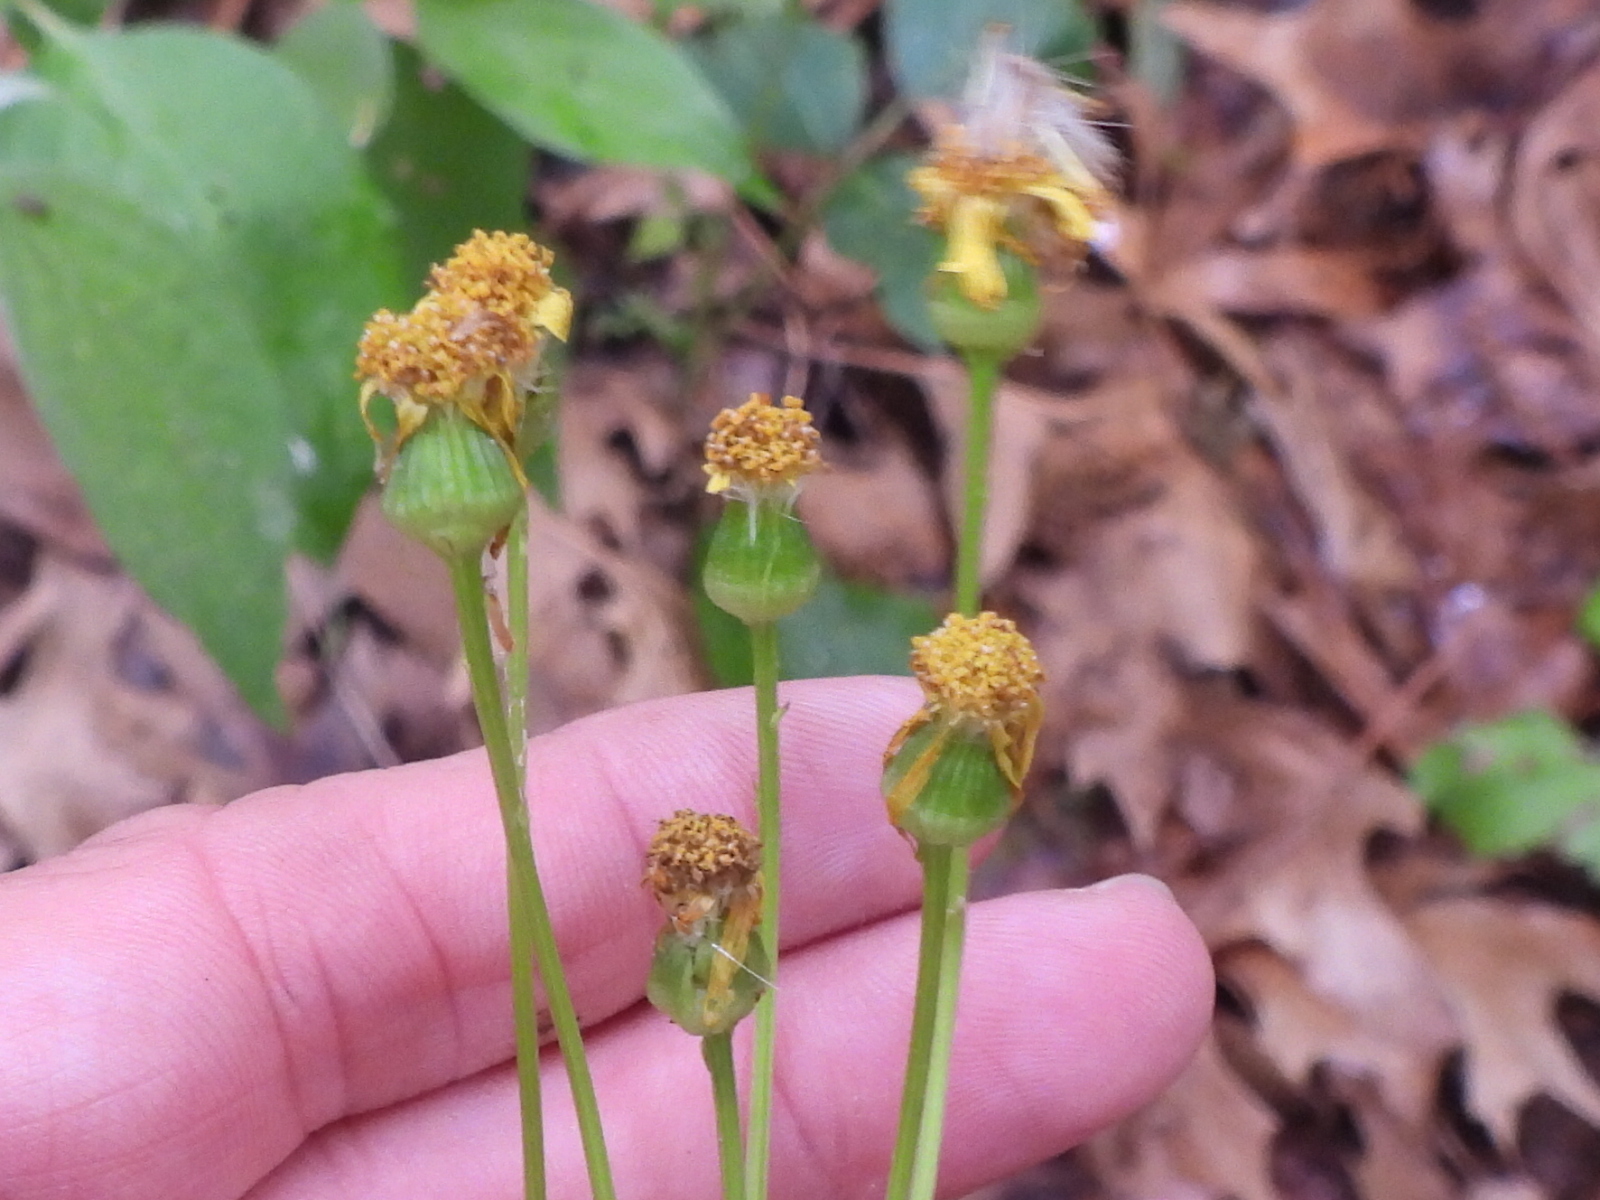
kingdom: Plantae
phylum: Tracheophyta
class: Magnoliopsida
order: Asterales
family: Asteraceae
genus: Packera
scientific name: Packera obovata
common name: Round-leaf ragwort
